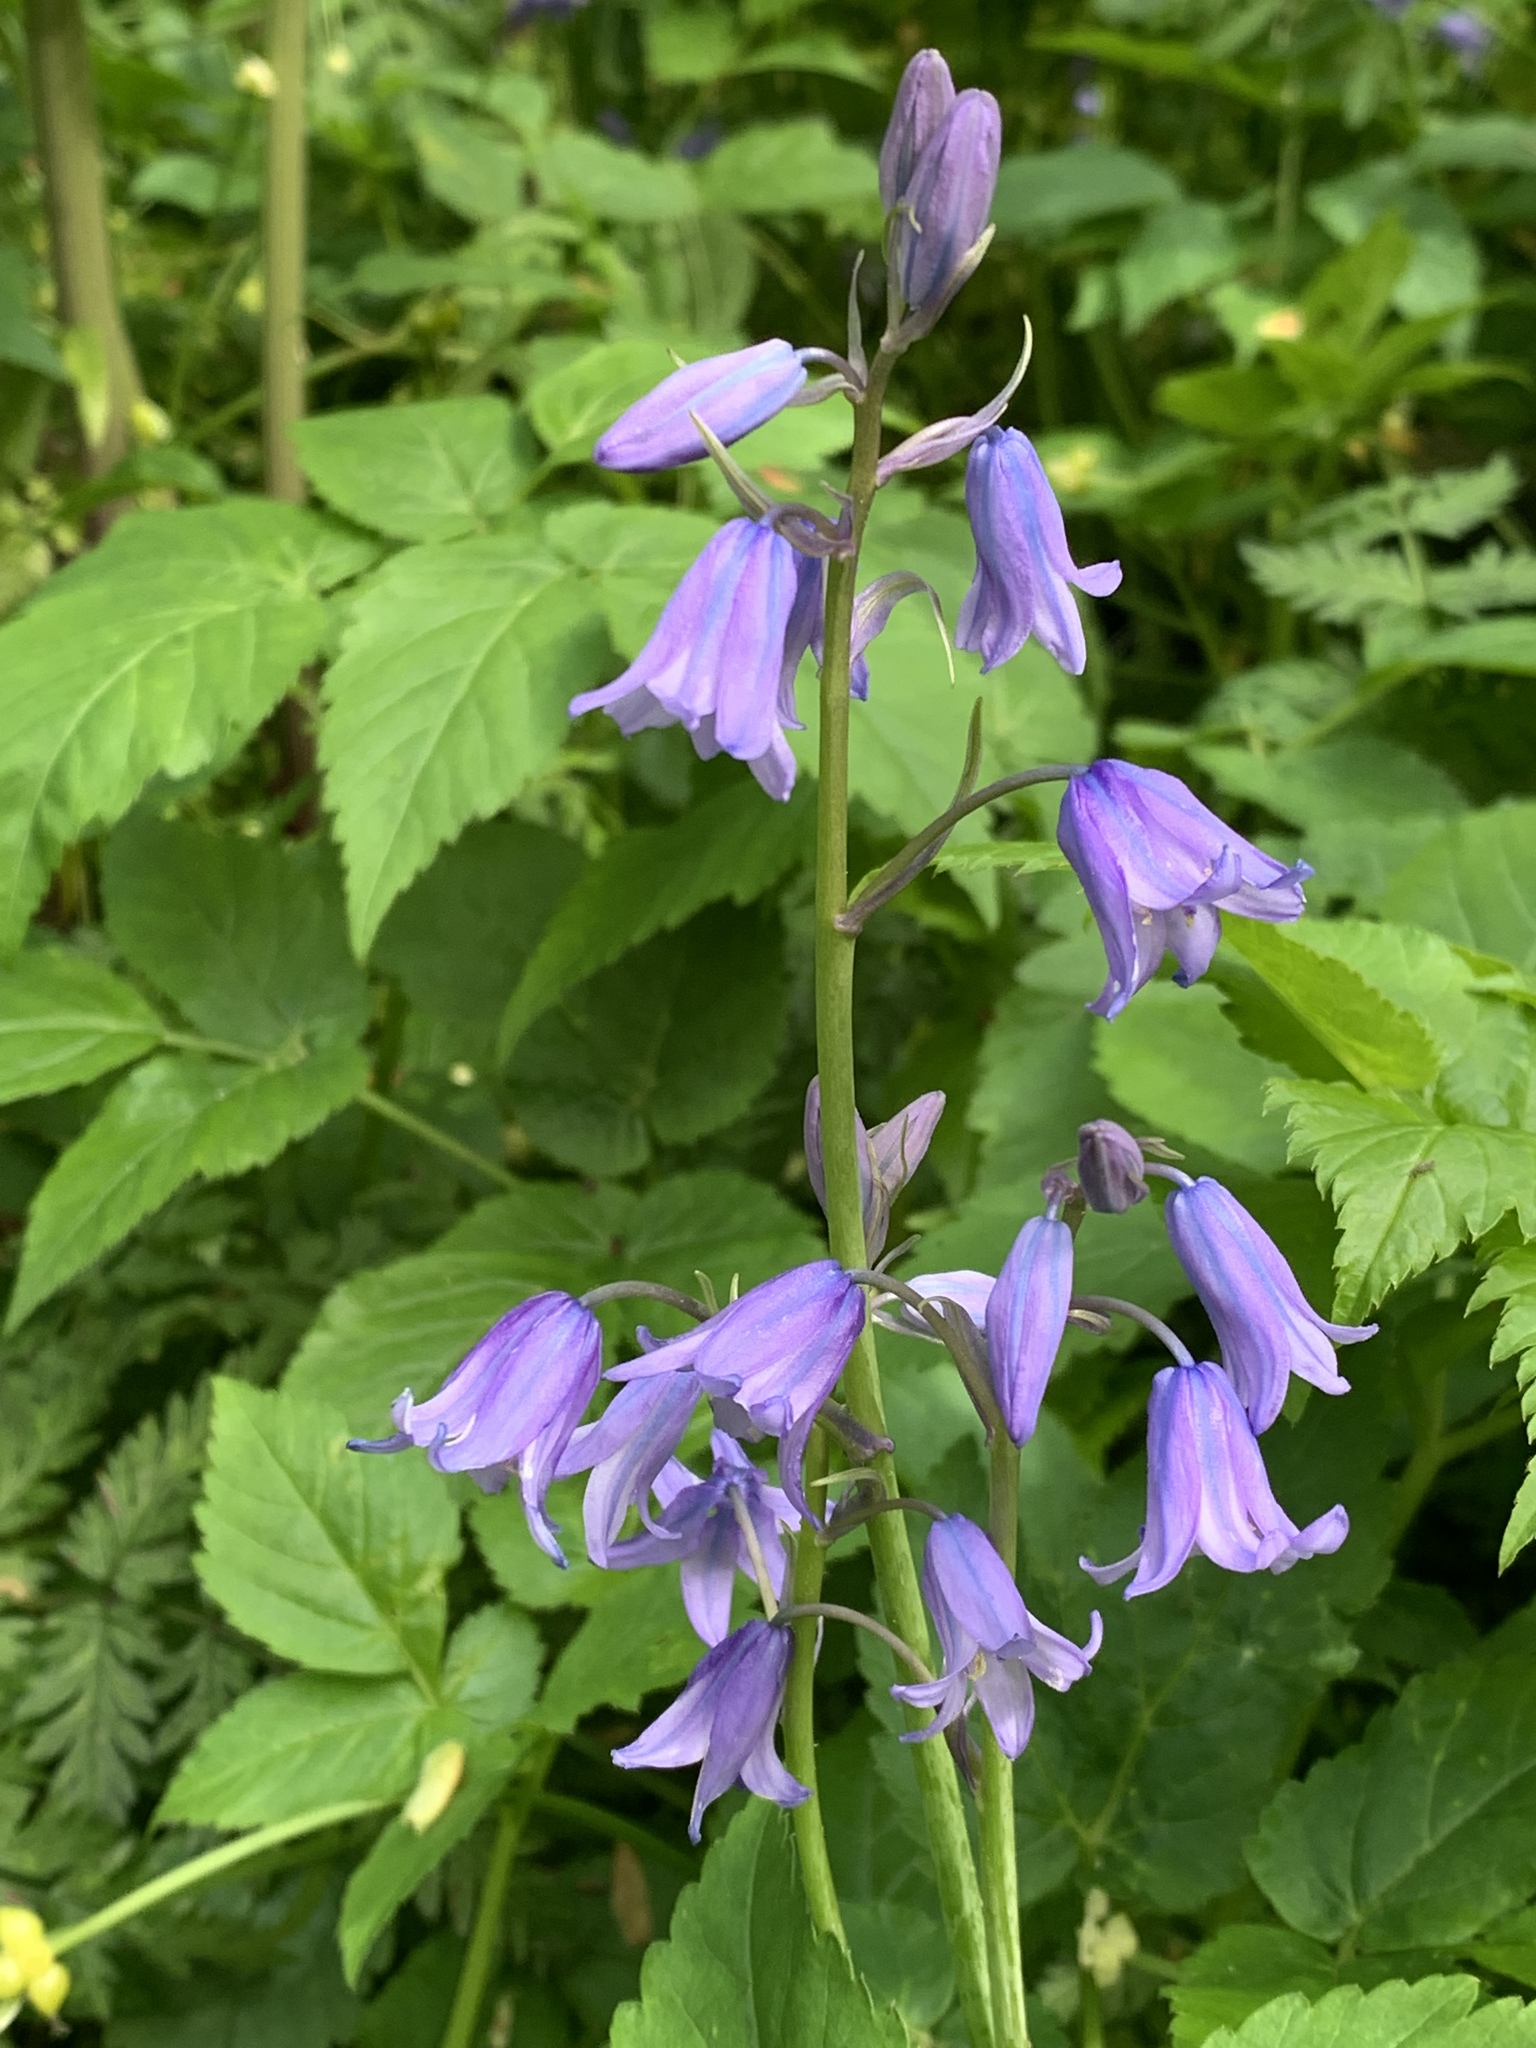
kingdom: Plantae
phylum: Tracheophyta
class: Liliopsida
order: Asparagales
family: Asparagaceae
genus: Hyacinthoides
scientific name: Hyacinthoides hispanica
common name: Spanish bluebell
